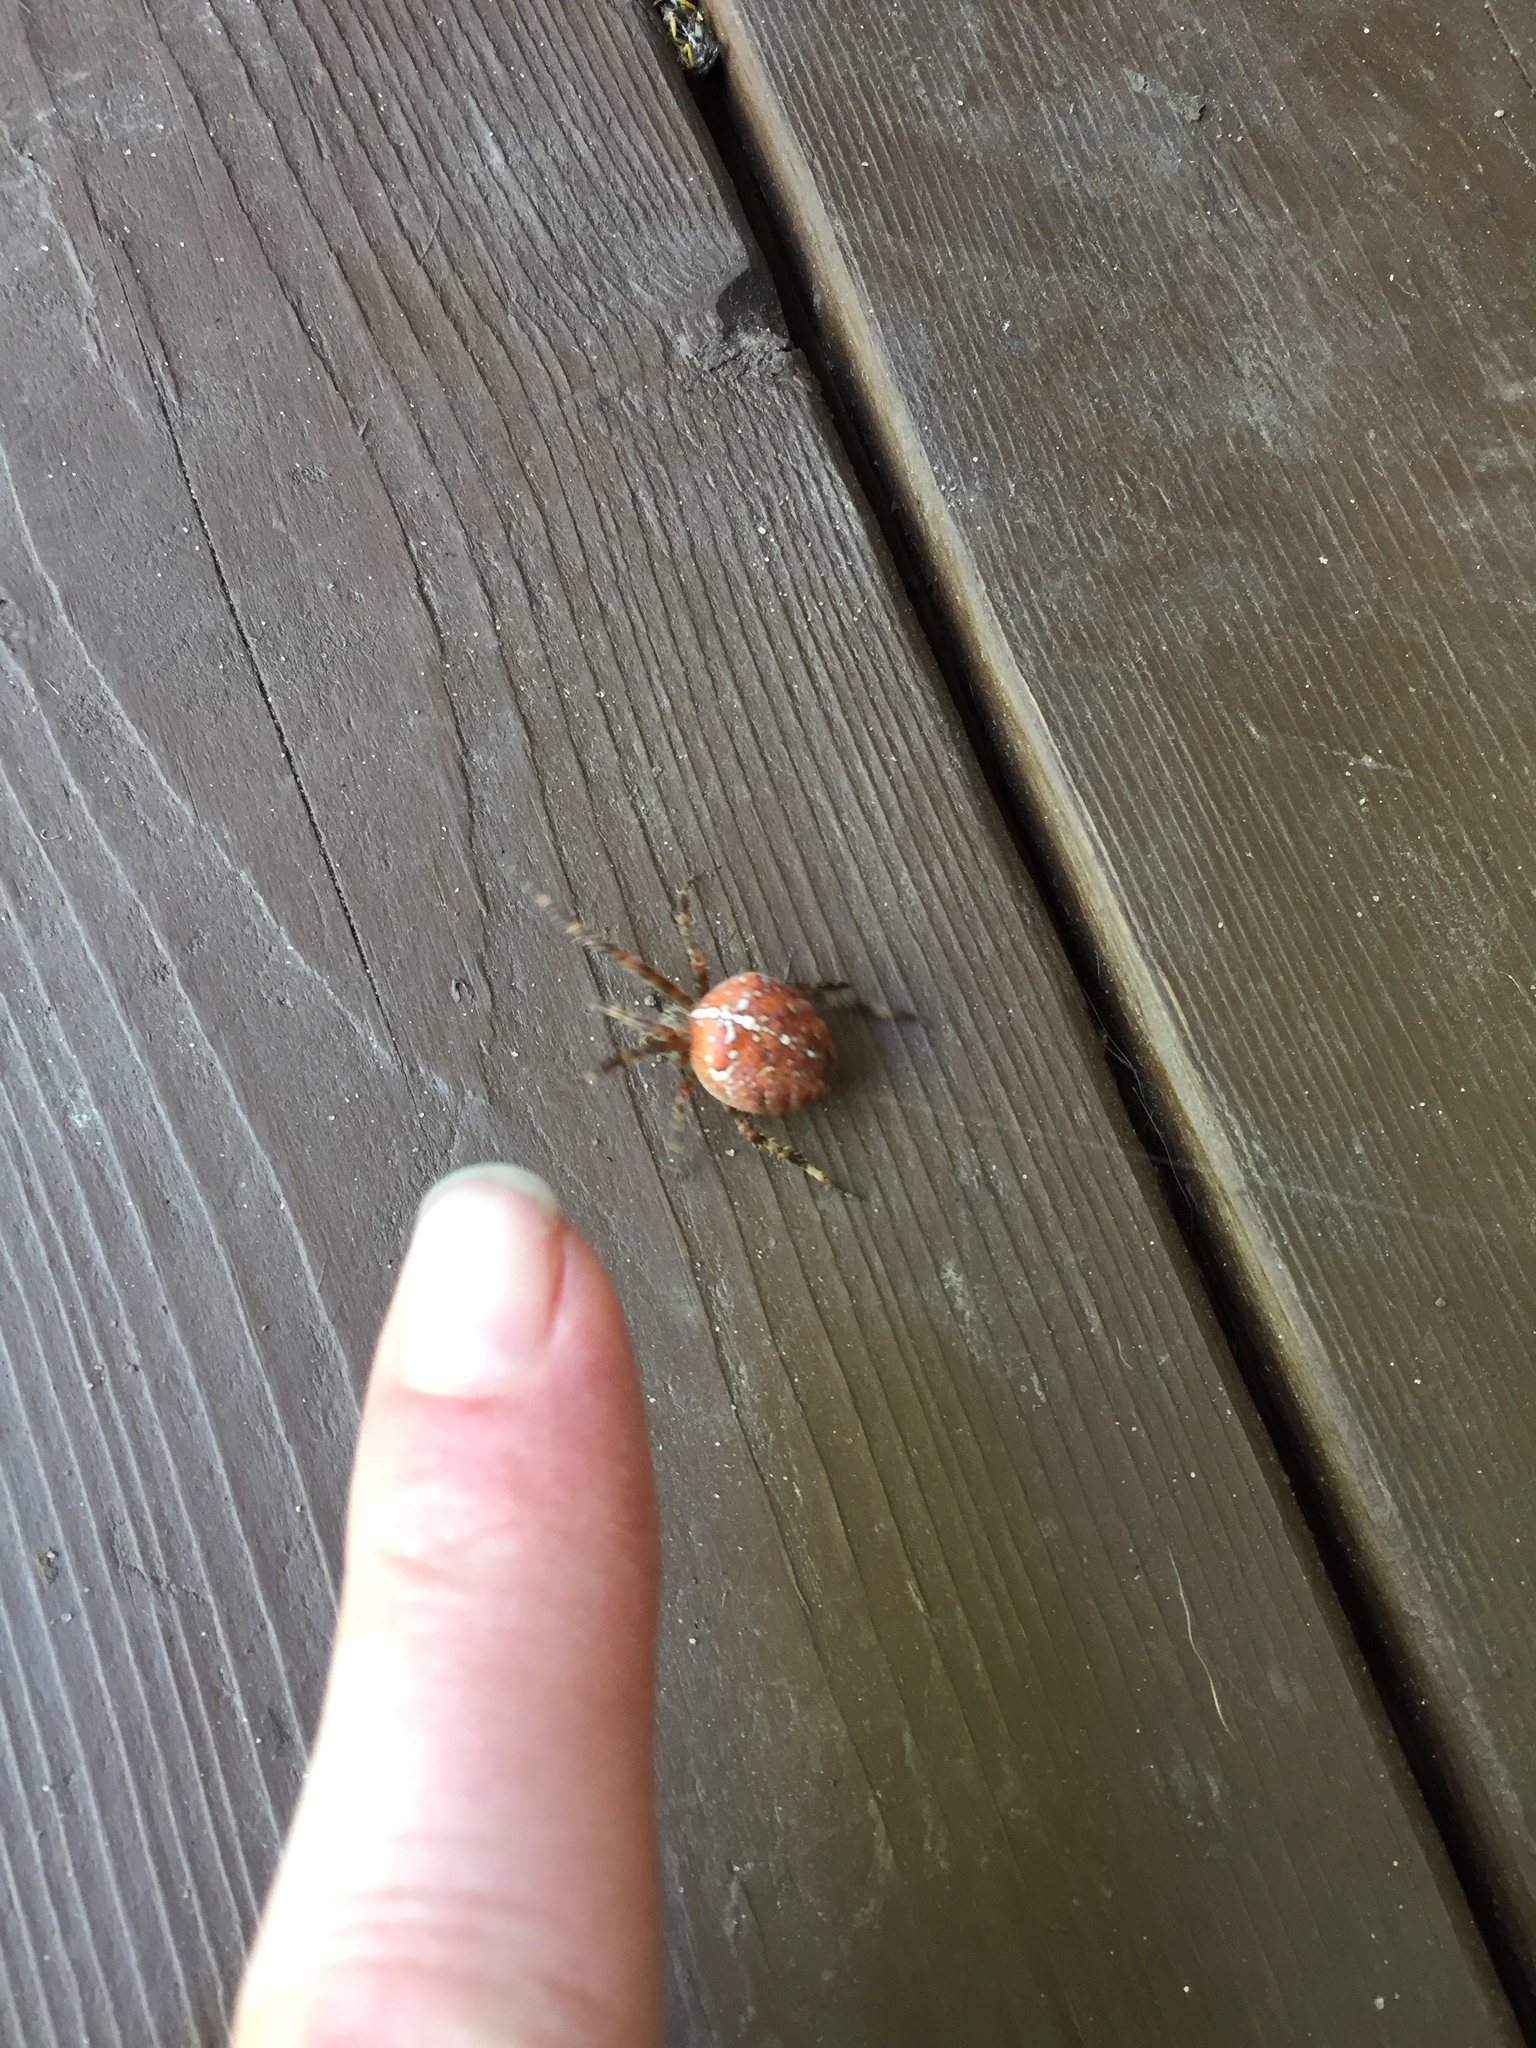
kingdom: Animalia
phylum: Arthropoda
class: Arachnida
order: Araneae
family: Araneidae
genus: Araneus
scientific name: Araneus diadematus
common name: Cross orbweaver
